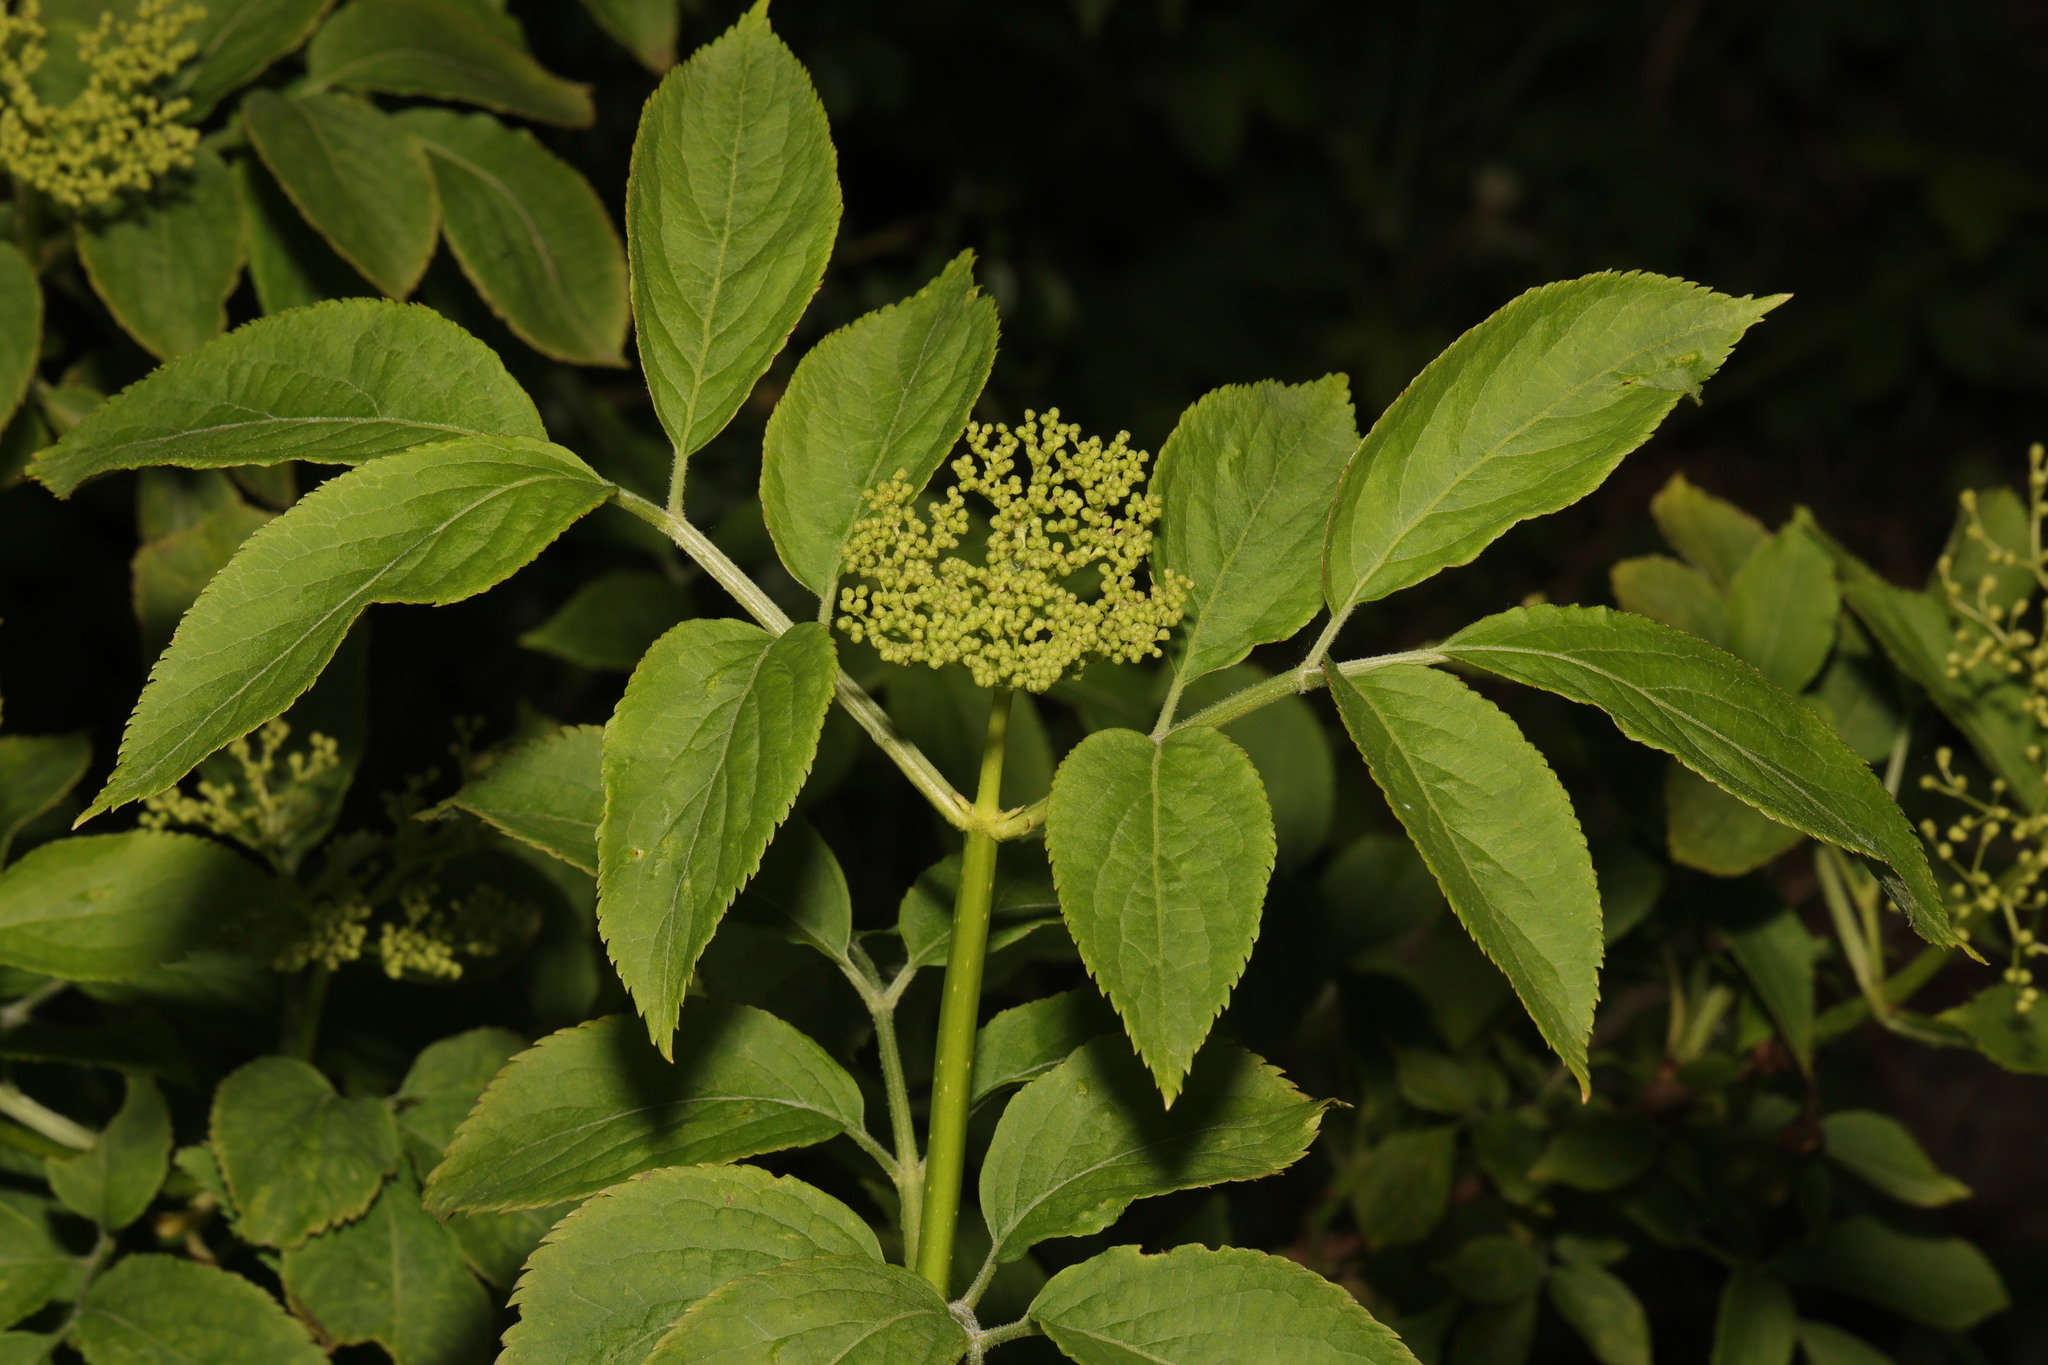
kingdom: Plantae
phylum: Tracheophyta
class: Magnoliopsida
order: Dipsacales
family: Viburnaceae
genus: Sambucus
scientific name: Sambucus nigra
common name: Elder
